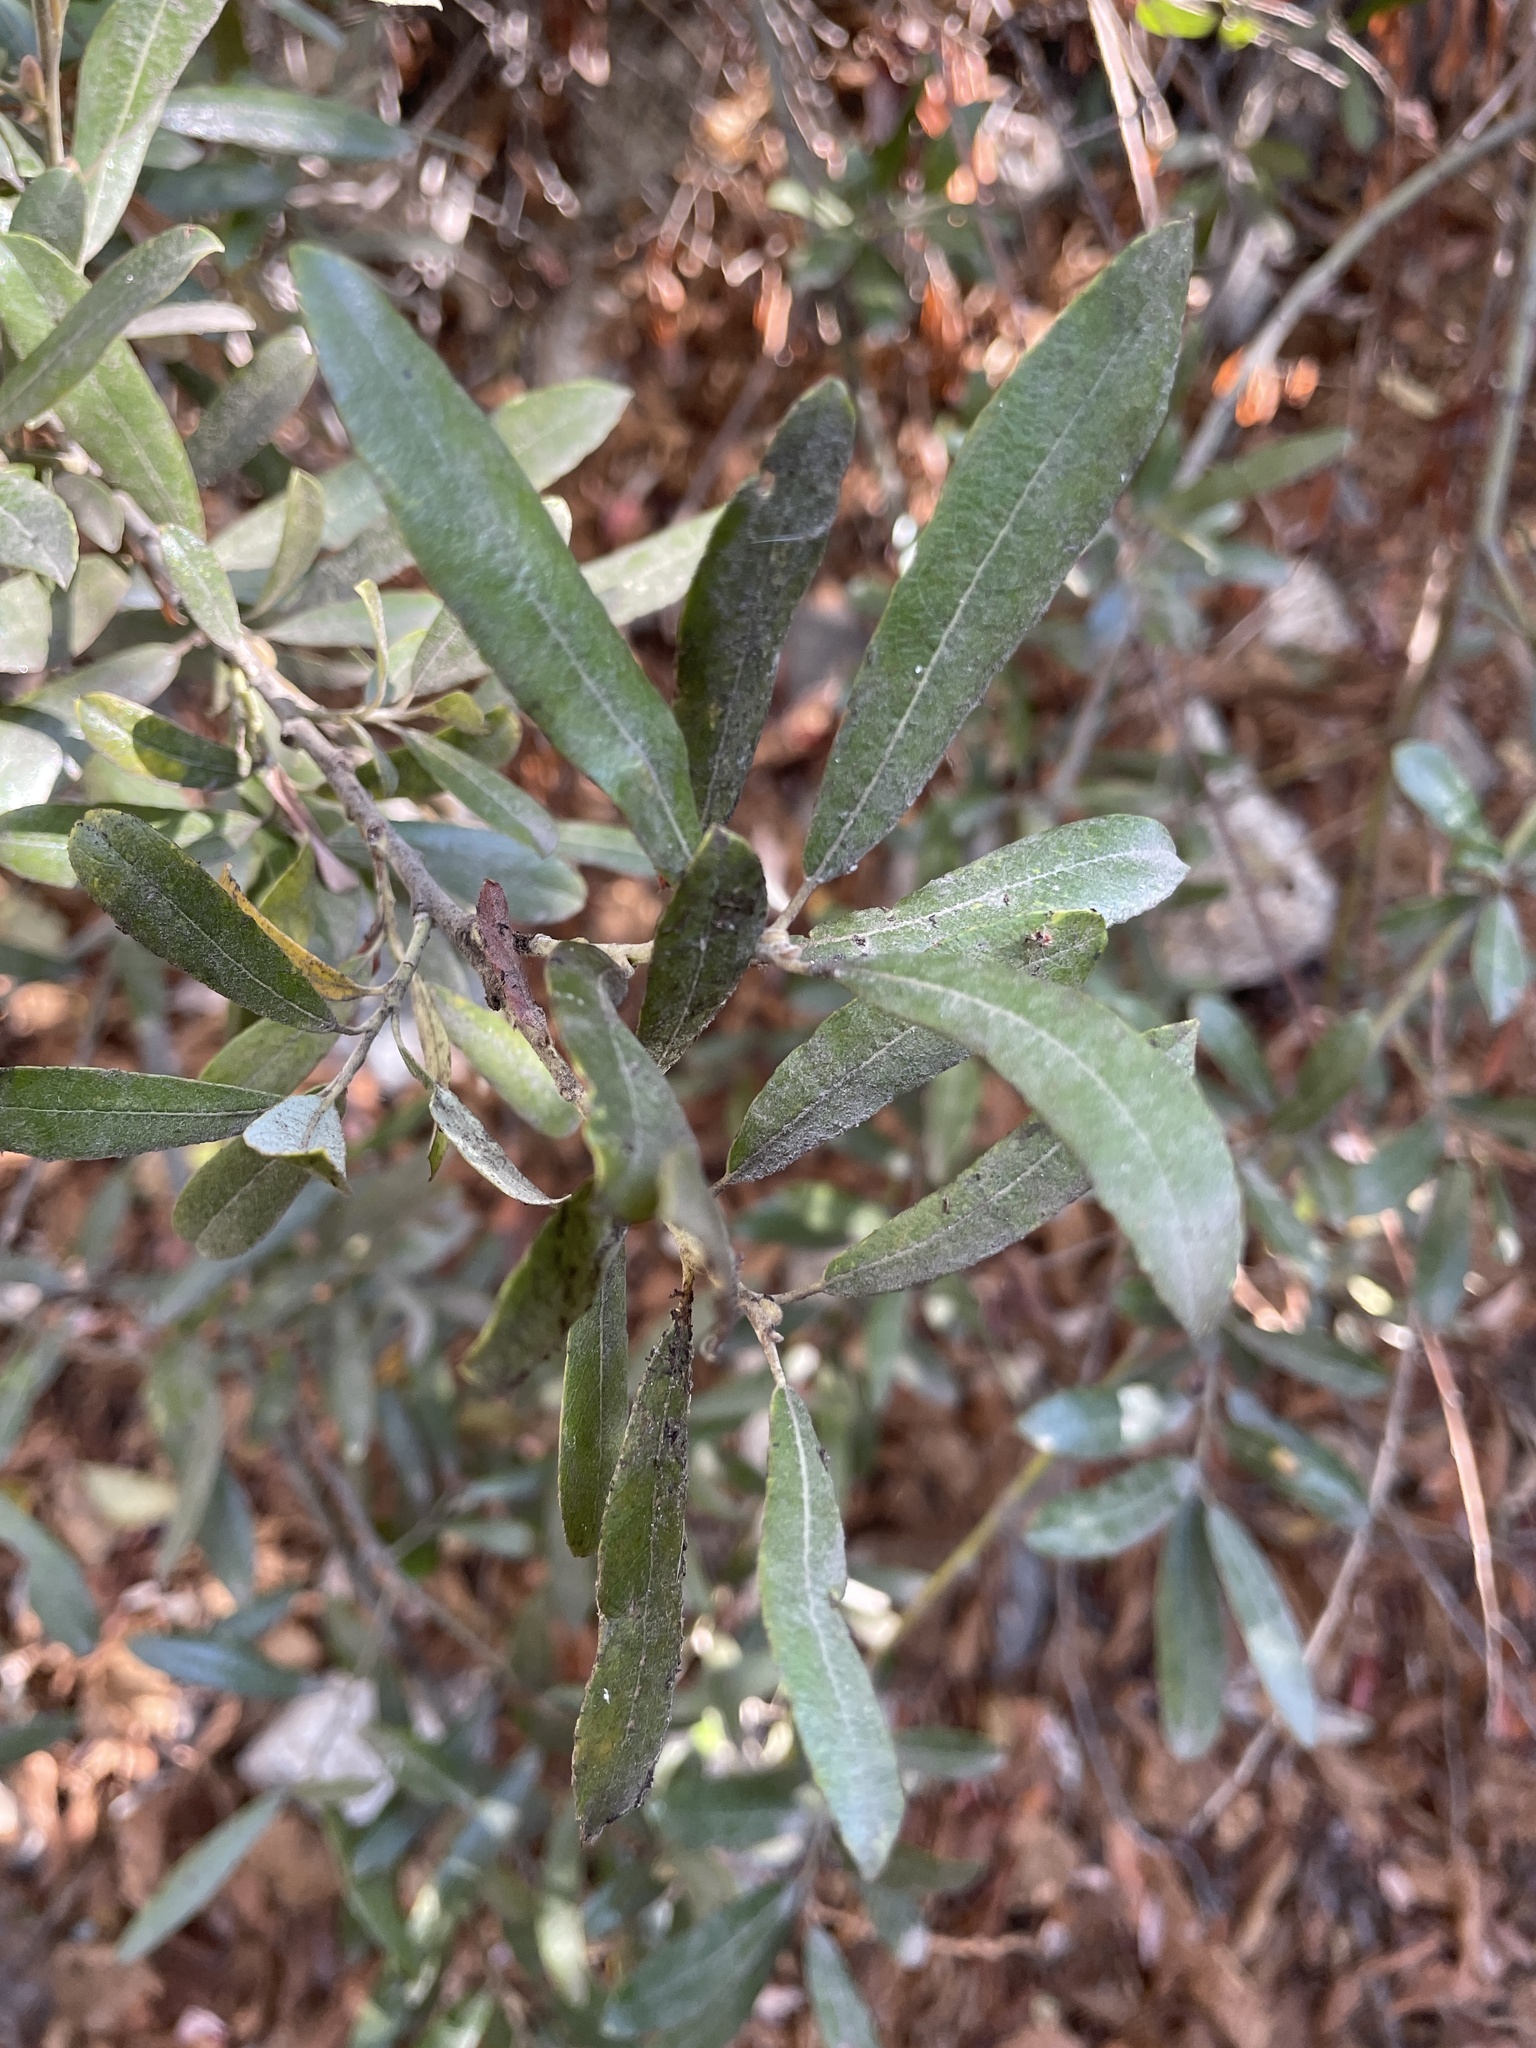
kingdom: Plantae
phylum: Tracheophyta
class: Magnoliopsida
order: Malpighiales
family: Salicaceae
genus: Salix
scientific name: Salix lasiolepis
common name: Arroyo willow
